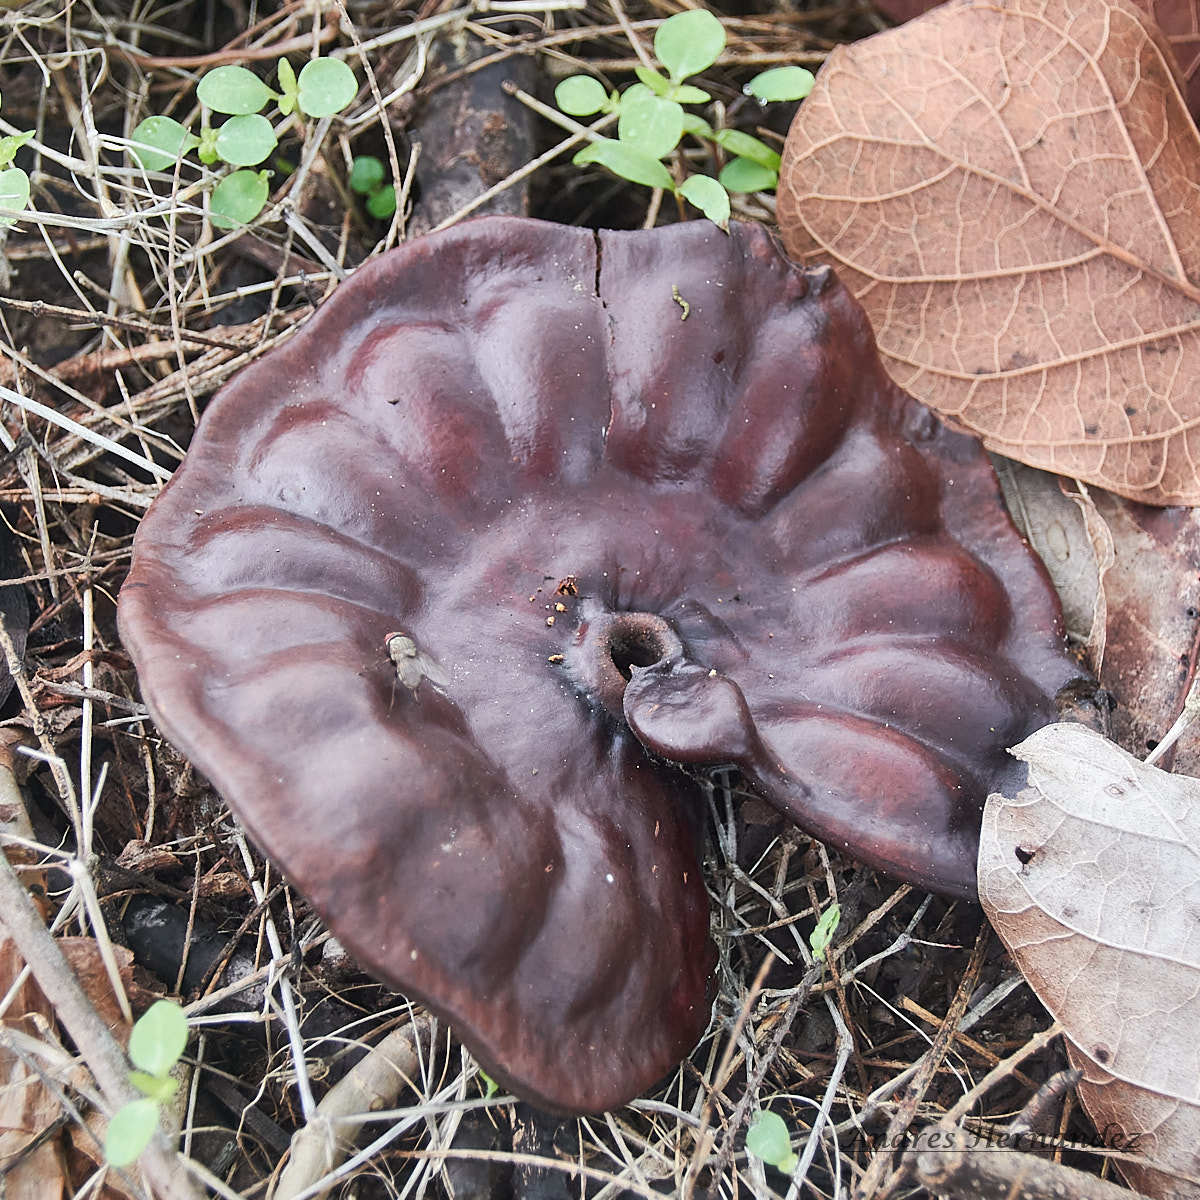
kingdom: Plantae
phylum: Tracheophyta
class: Magnoliopsida
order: Fabales
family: Fabaceae
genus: Enterolobium
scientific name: Enterolobium cyclocarpum
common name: Ear tree
